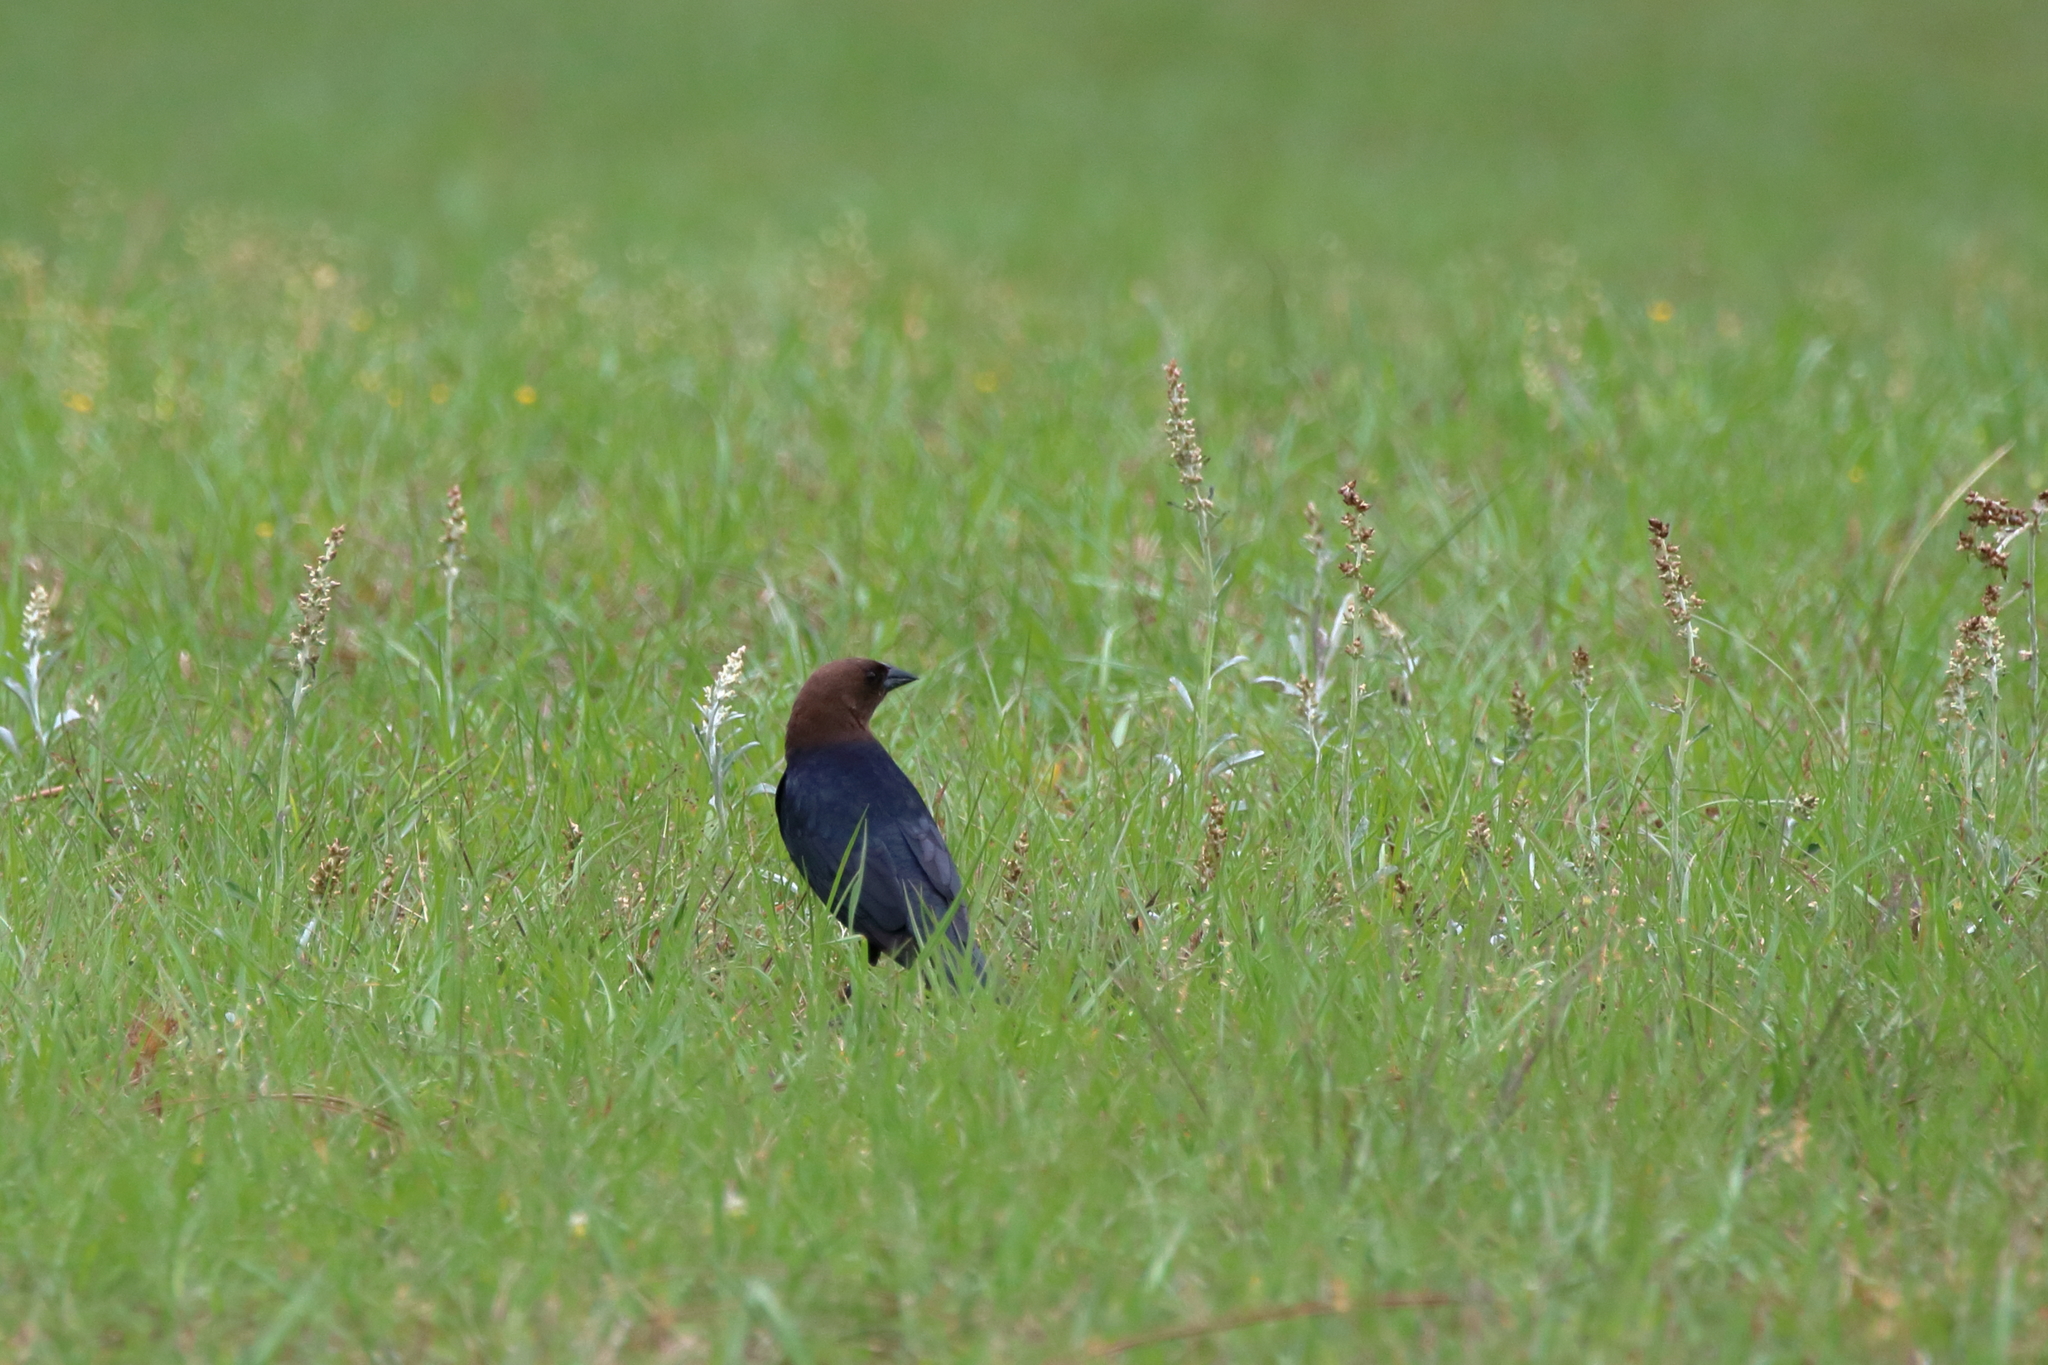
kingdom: Animalia
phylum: Chordata
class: Aves
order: Passeriformes
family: Icteridae
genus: Molothrus
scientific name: Molothrus ater
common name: Brown-headed cowbird
